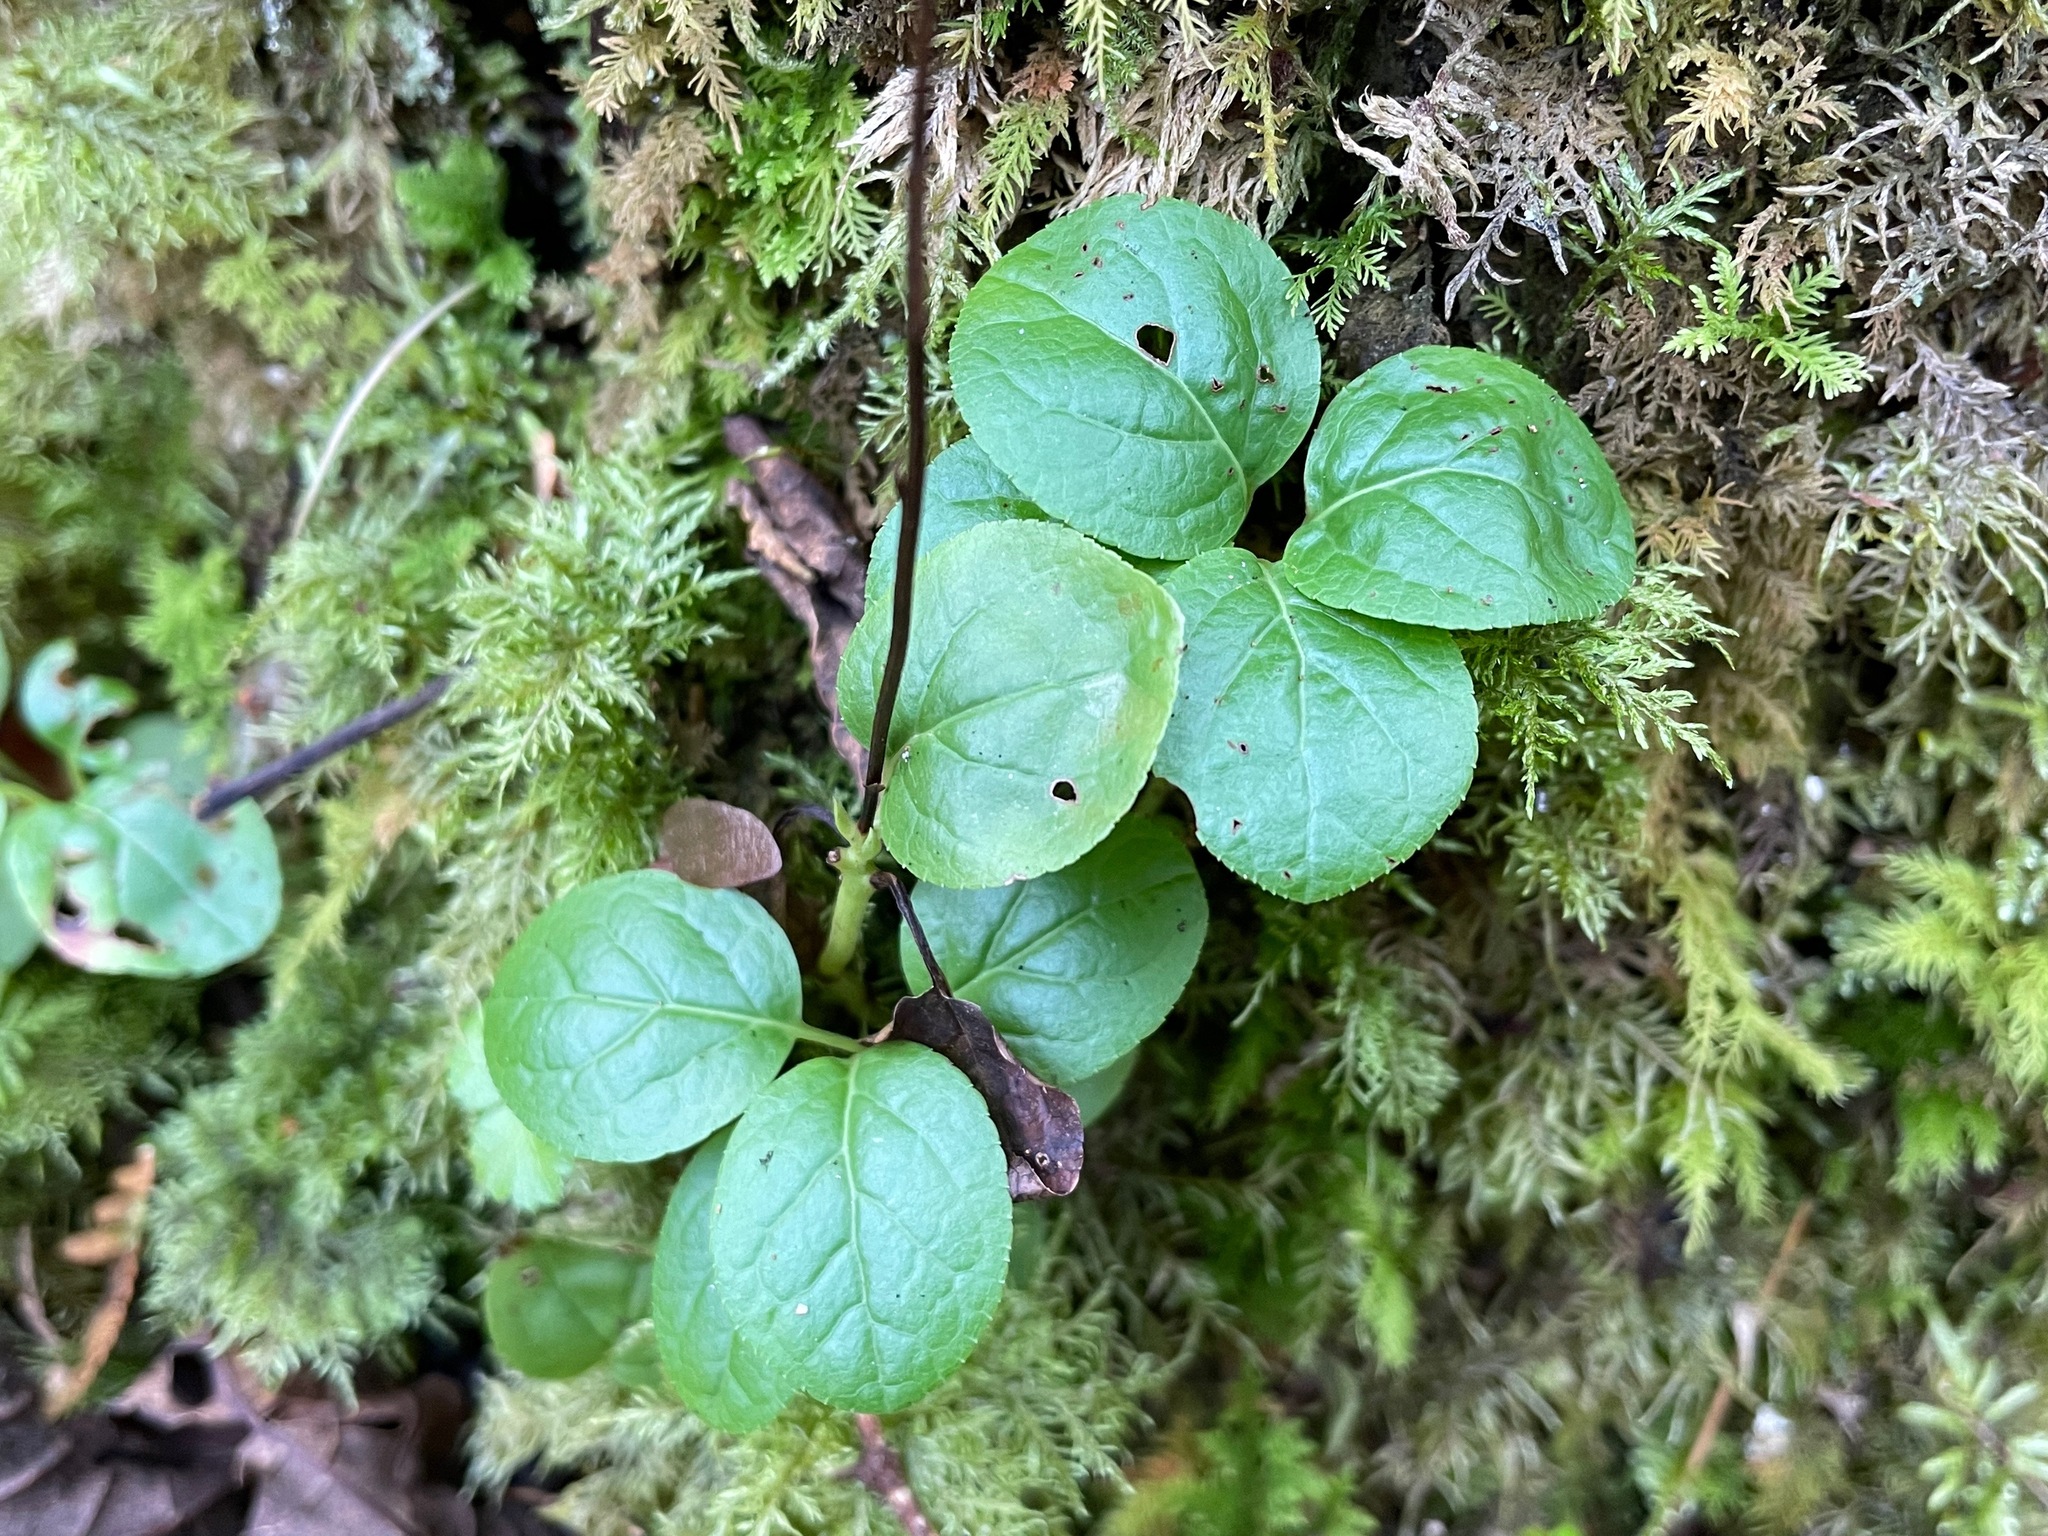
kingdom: Plantae
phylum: Tracheophyta
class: Magnoliopsida
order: Ericales
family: Ericaceae
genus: Orthilia
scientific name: Orthilia secunda
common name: One-sided orthilia
